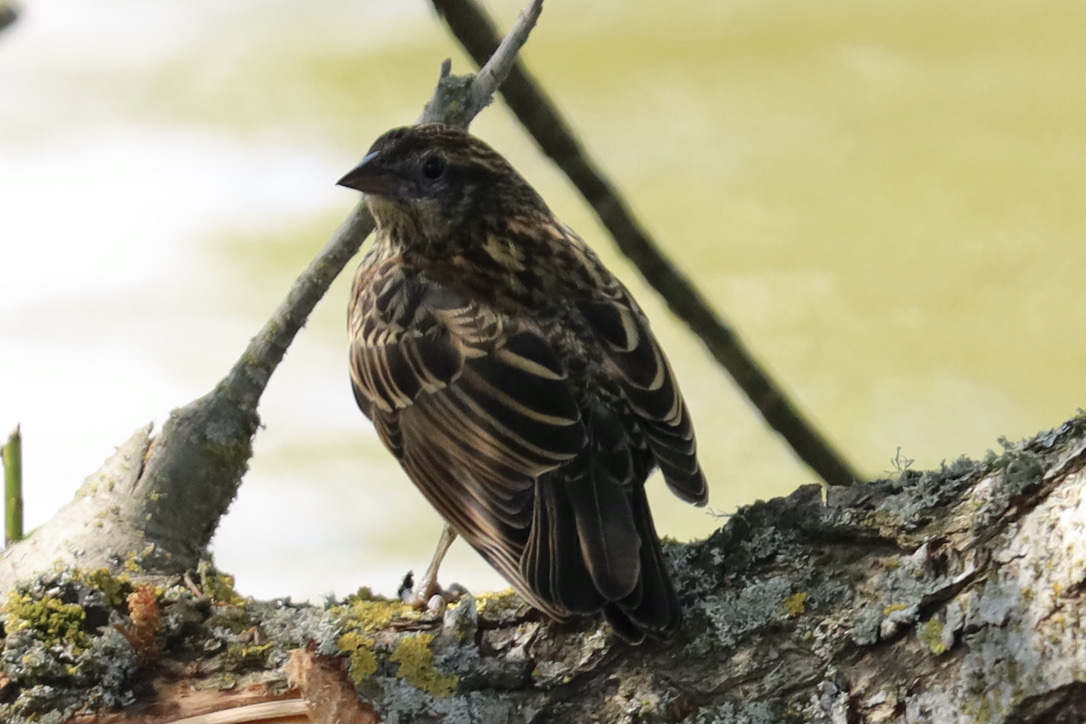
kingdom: Animalia
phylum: Chordata
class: Aves
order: Passeriformes
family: Icteridae
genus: Agelaius
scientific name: Agelaius phoeniceus
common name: Red-winged blackbird
